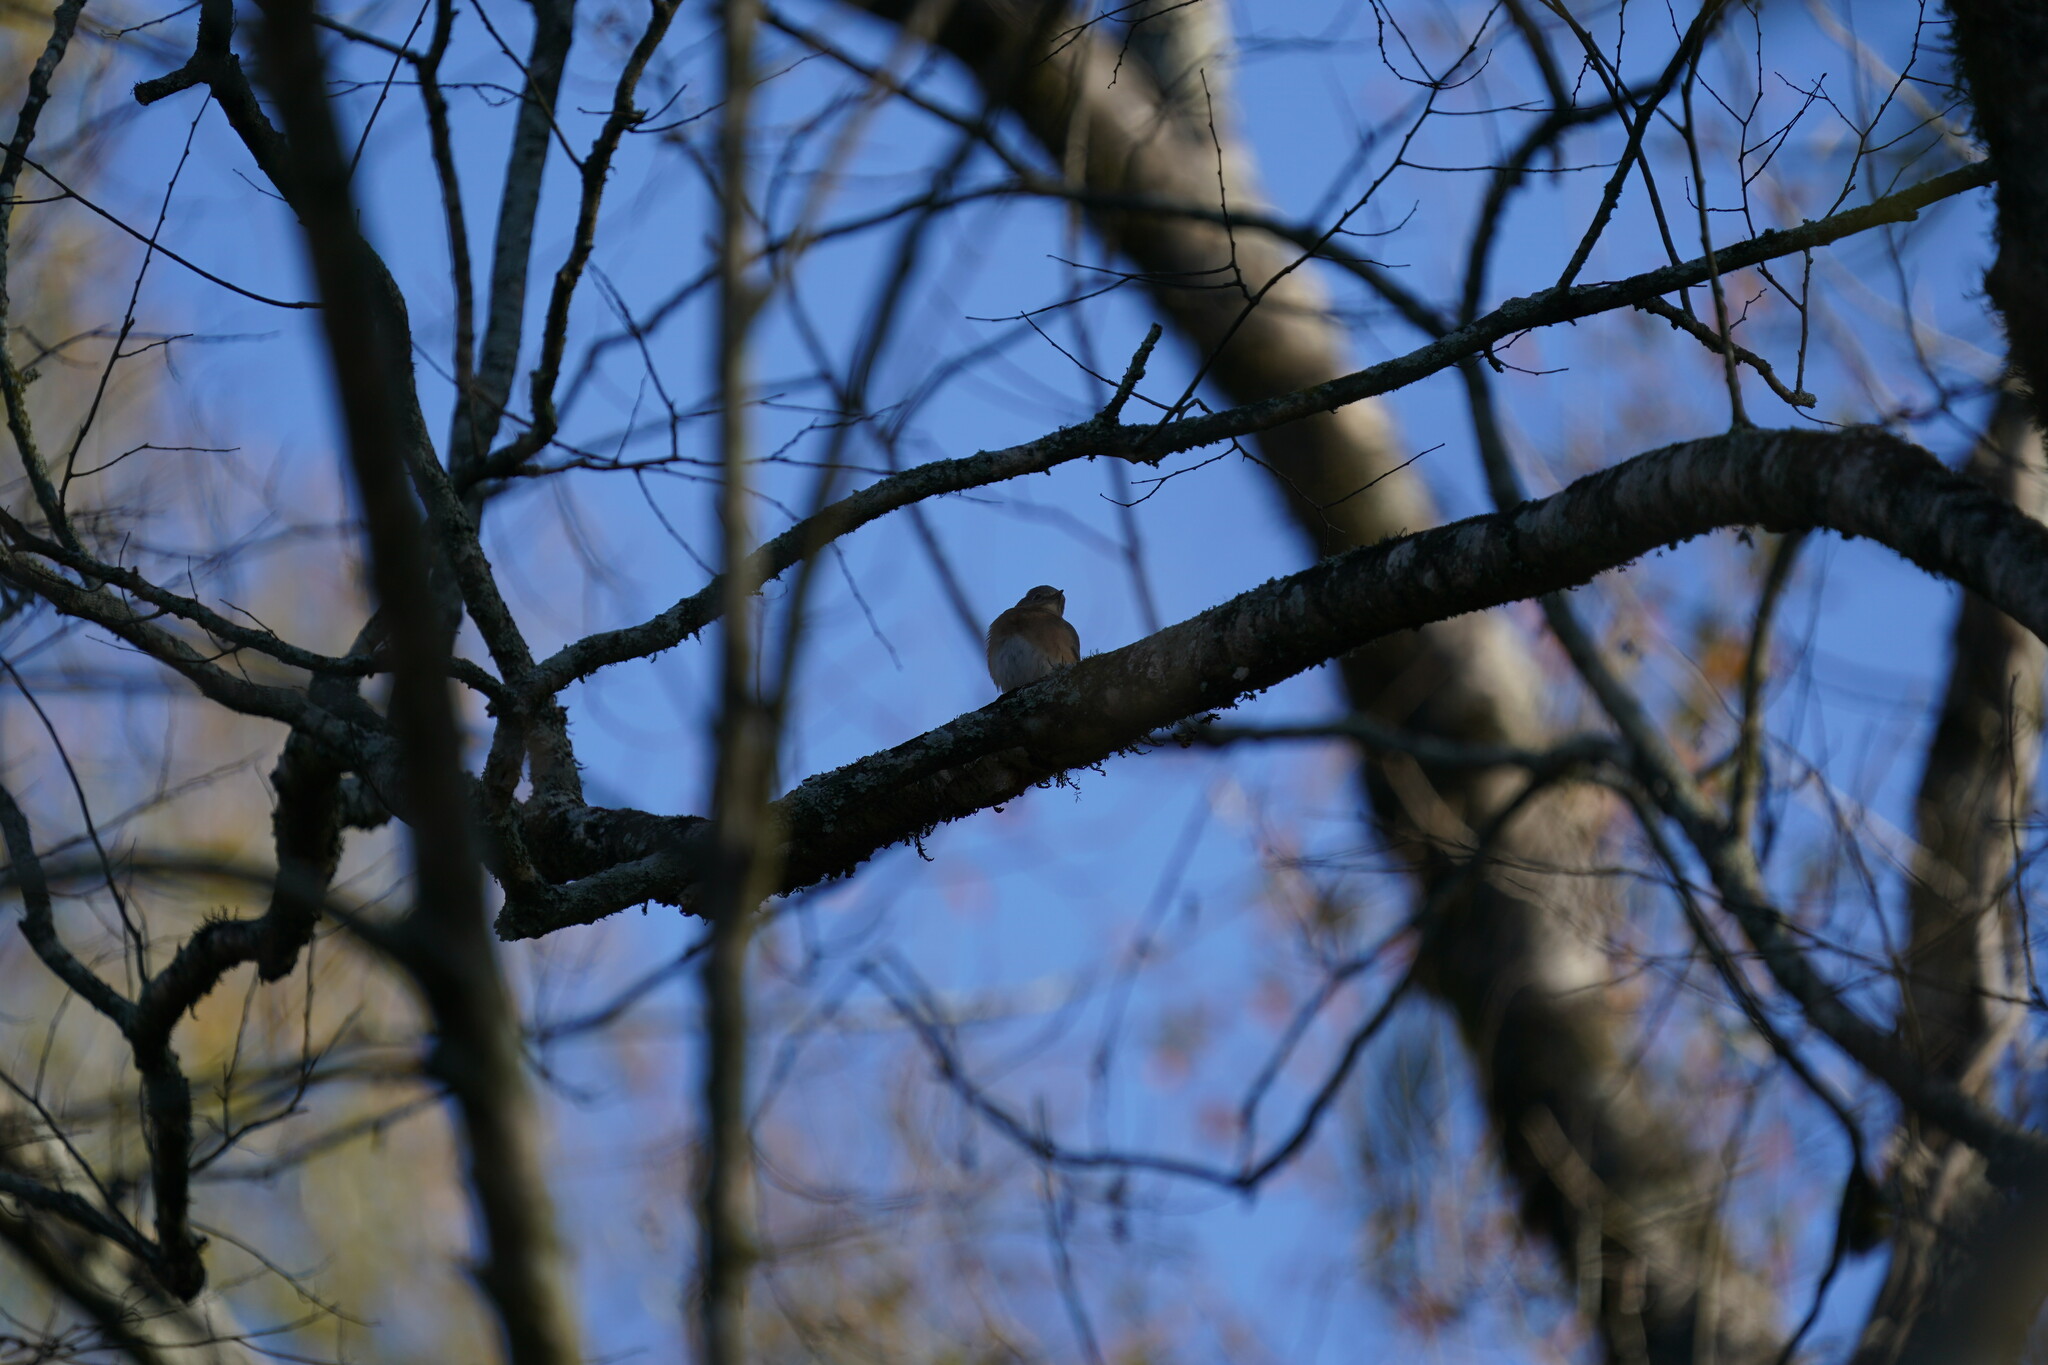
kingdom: Animalia
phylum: Chordata
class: Aves
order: Passeriformes
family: Turdidae
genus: Sialia
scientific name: Sialia sialis
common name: Eastern bluebird
